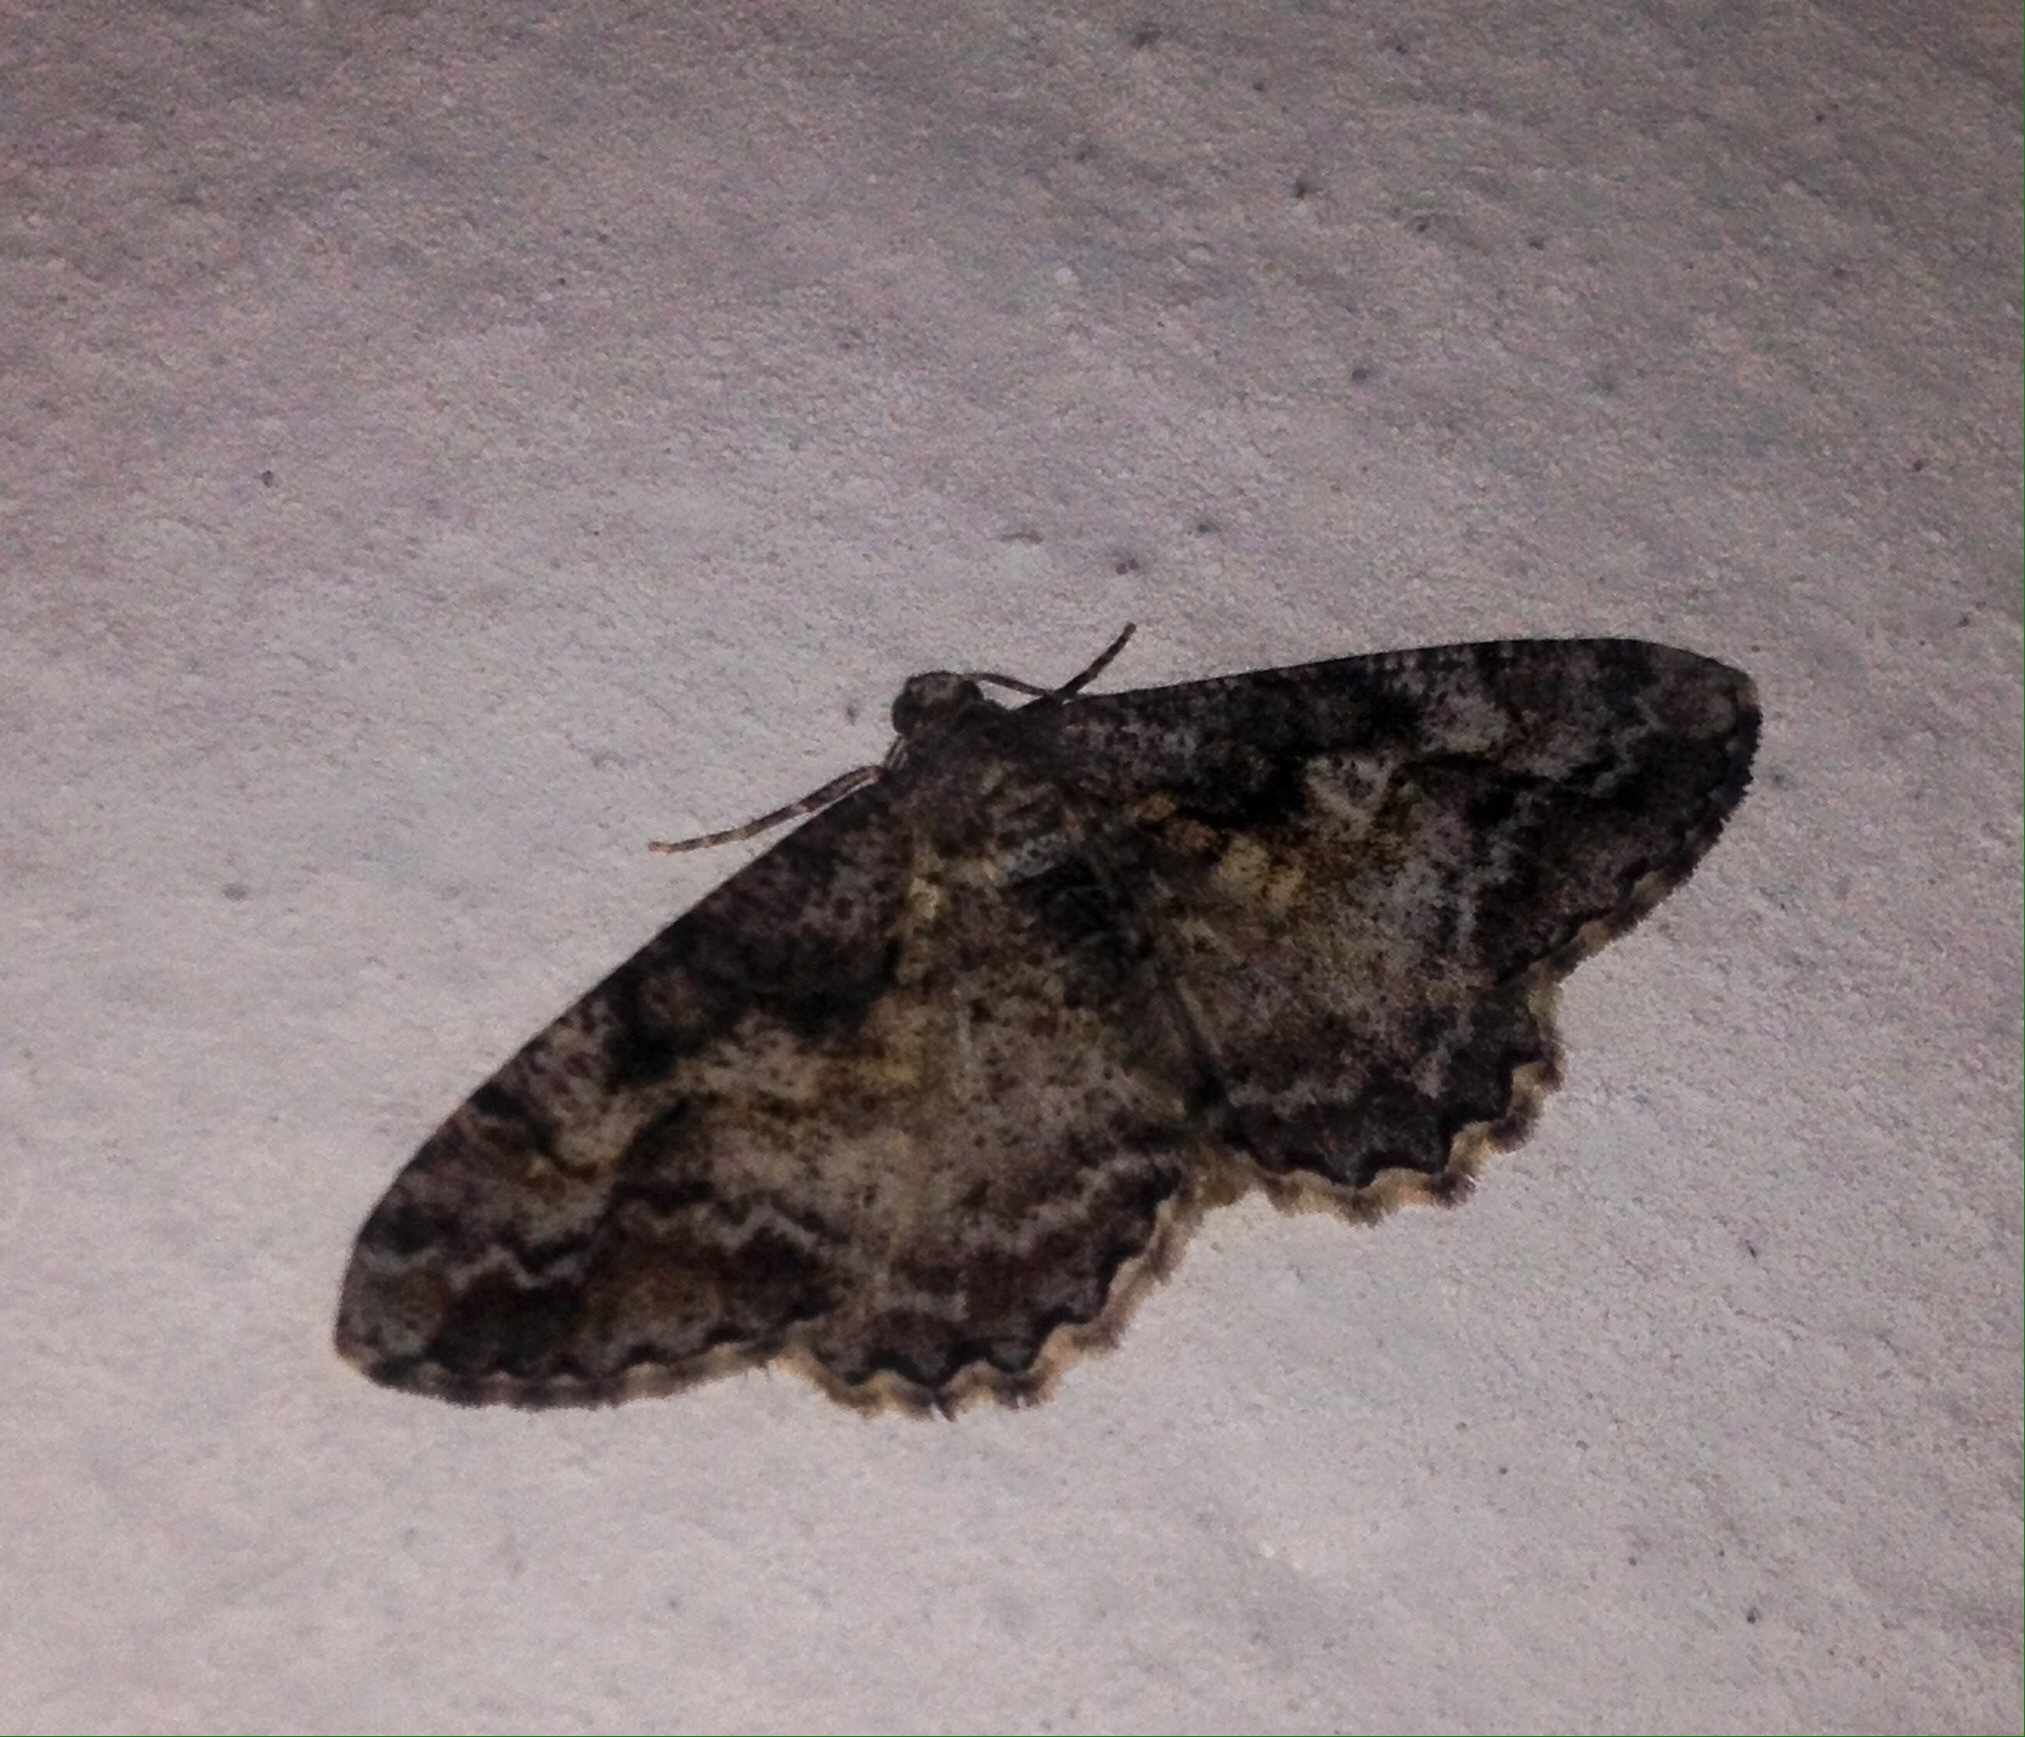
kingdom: Animalia
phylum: Arthropoda
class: Insecta
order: Lepidoptera
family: Geometridae
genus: Alcis
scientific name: Alcis repandata
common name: Mottled beauty
